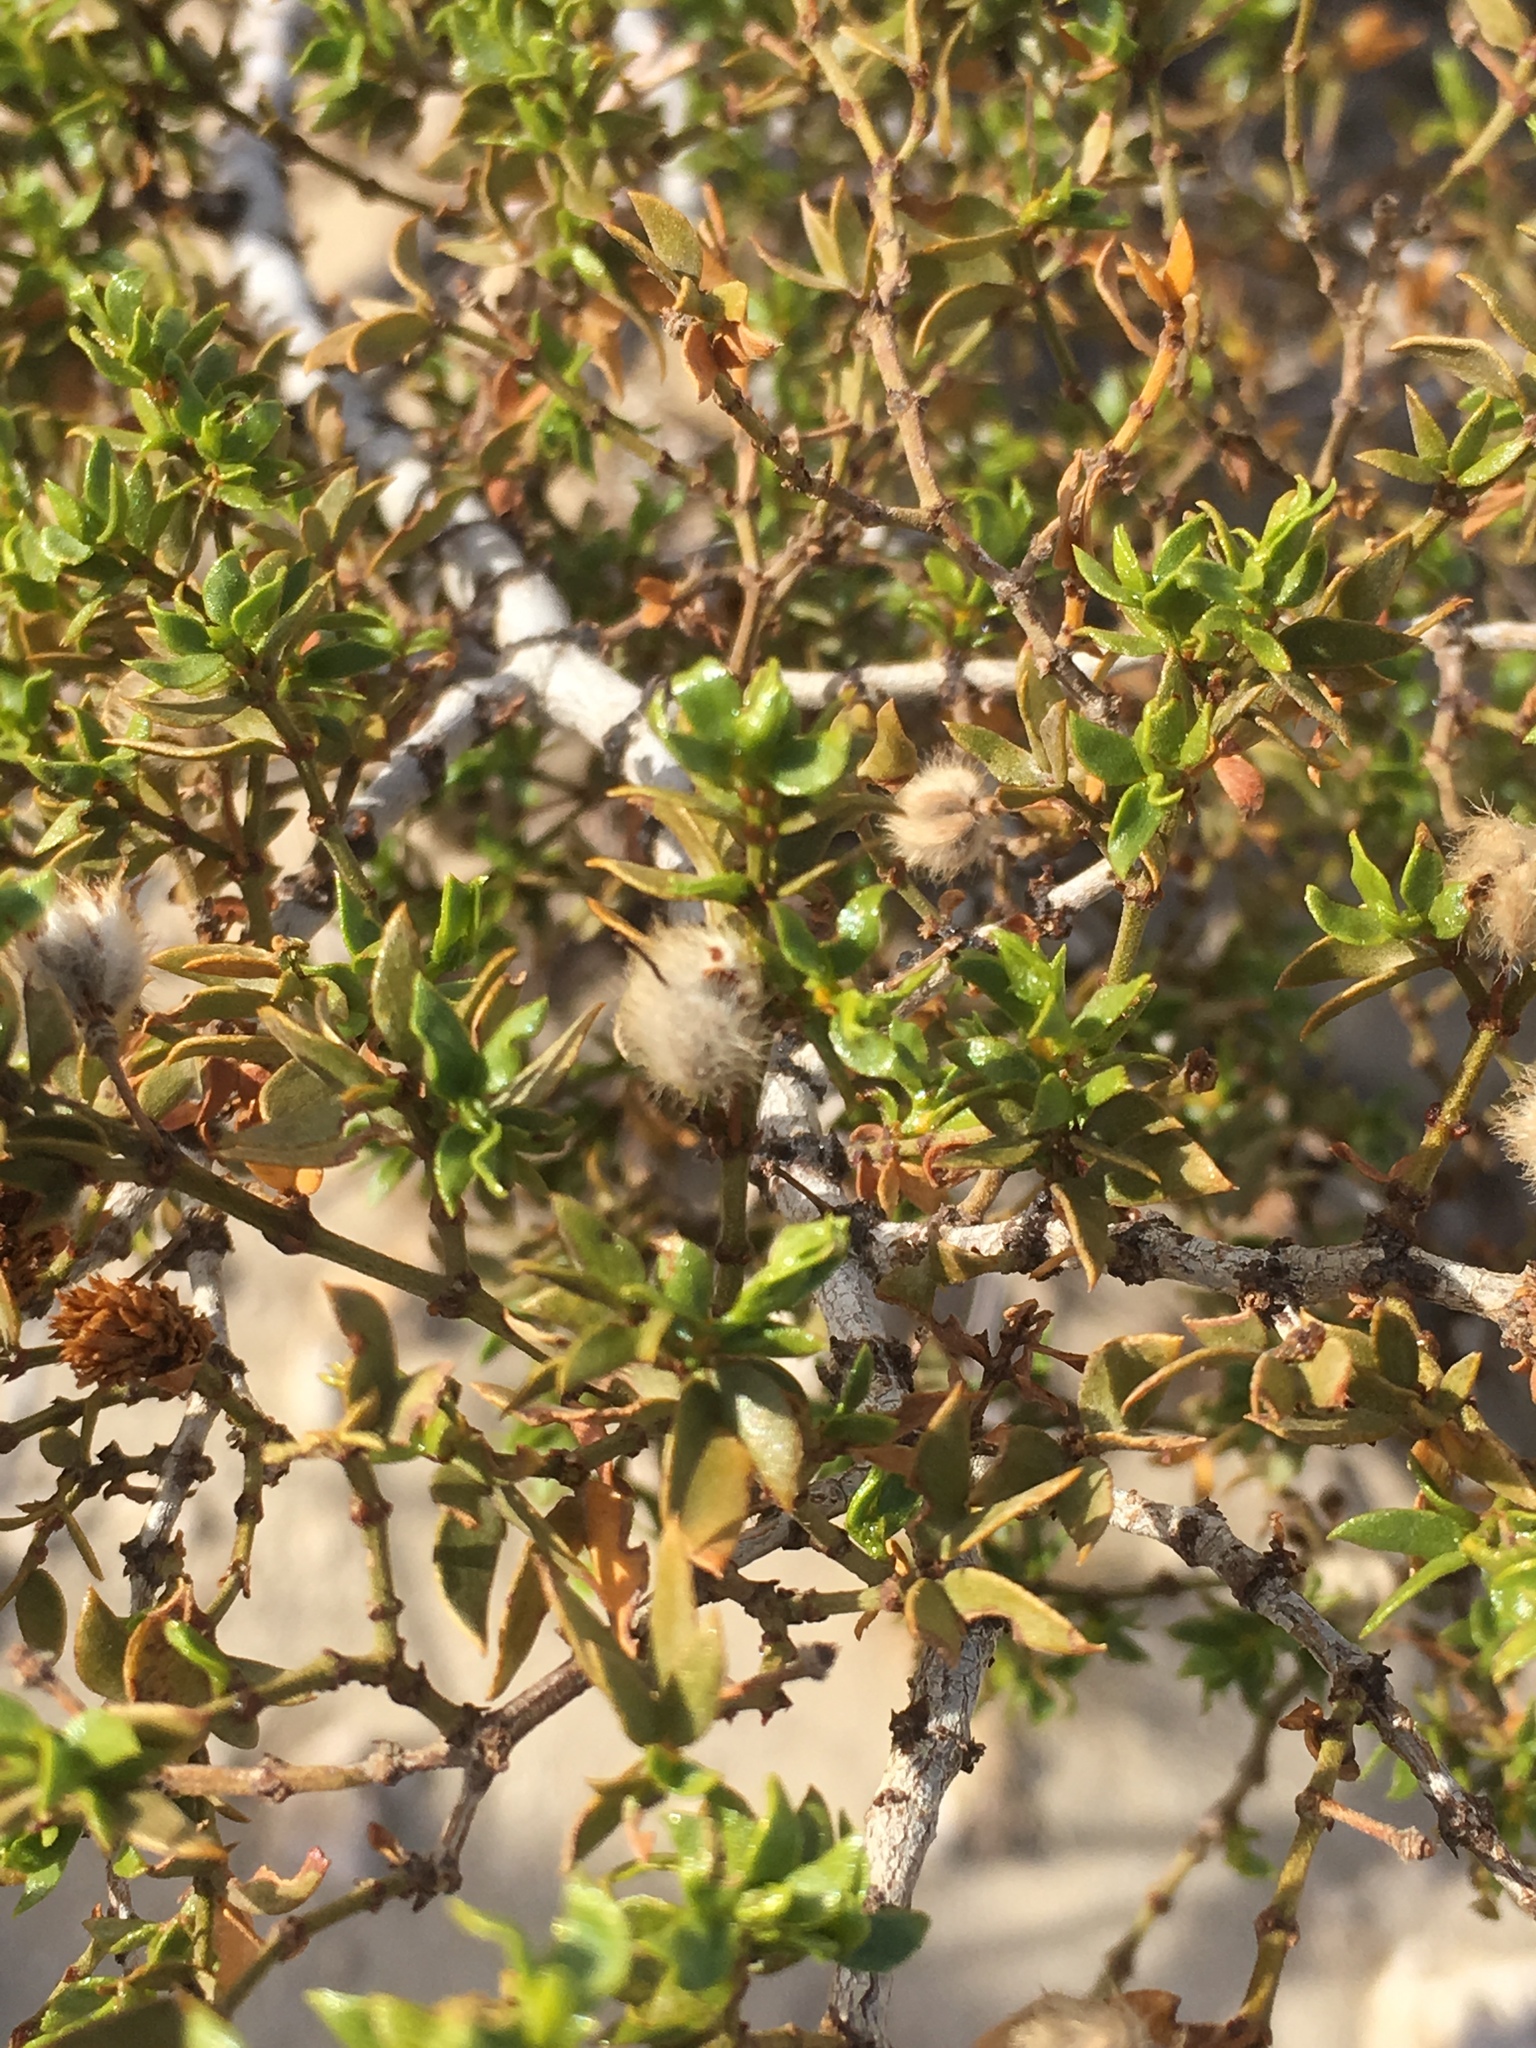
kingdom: Plantae
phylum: Tracheophyta
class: Magnoliopsida
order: Zygophyllales
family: Zygophyllaceae
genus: Larrea
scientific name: Larrea tridentata
